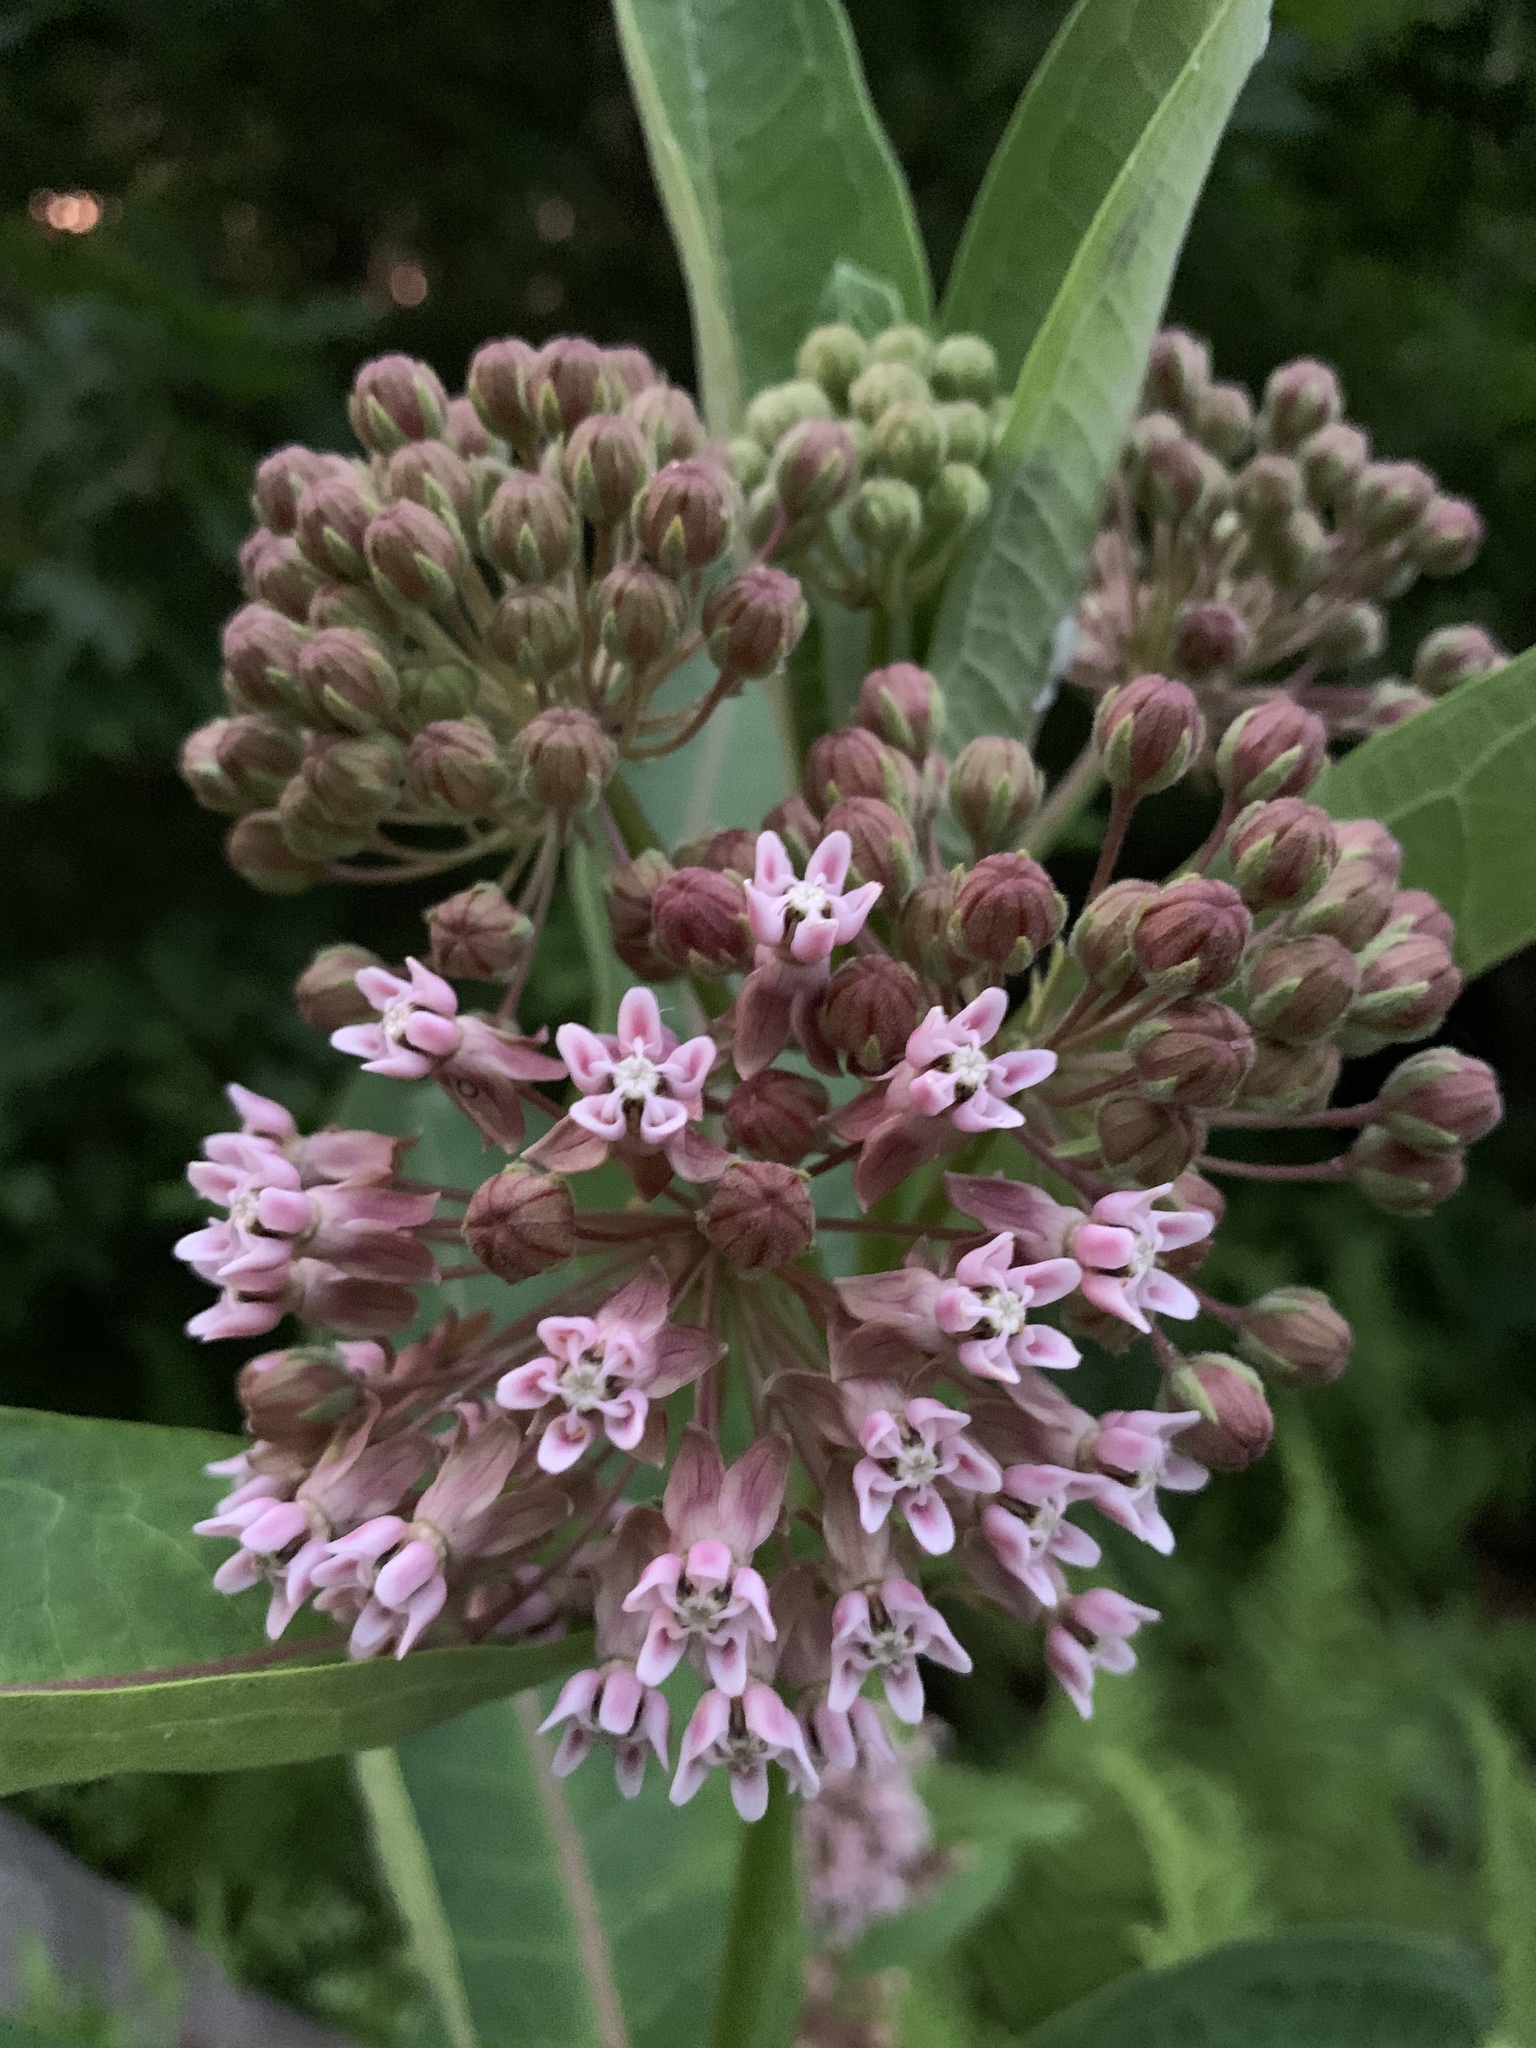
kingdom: Plantae
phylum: Tracheophyta
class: Magnoliopsida
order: Gentianales
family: Apocynaceae
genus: Asclepias
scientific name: Asclepias syriaca
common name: Common milkweed
